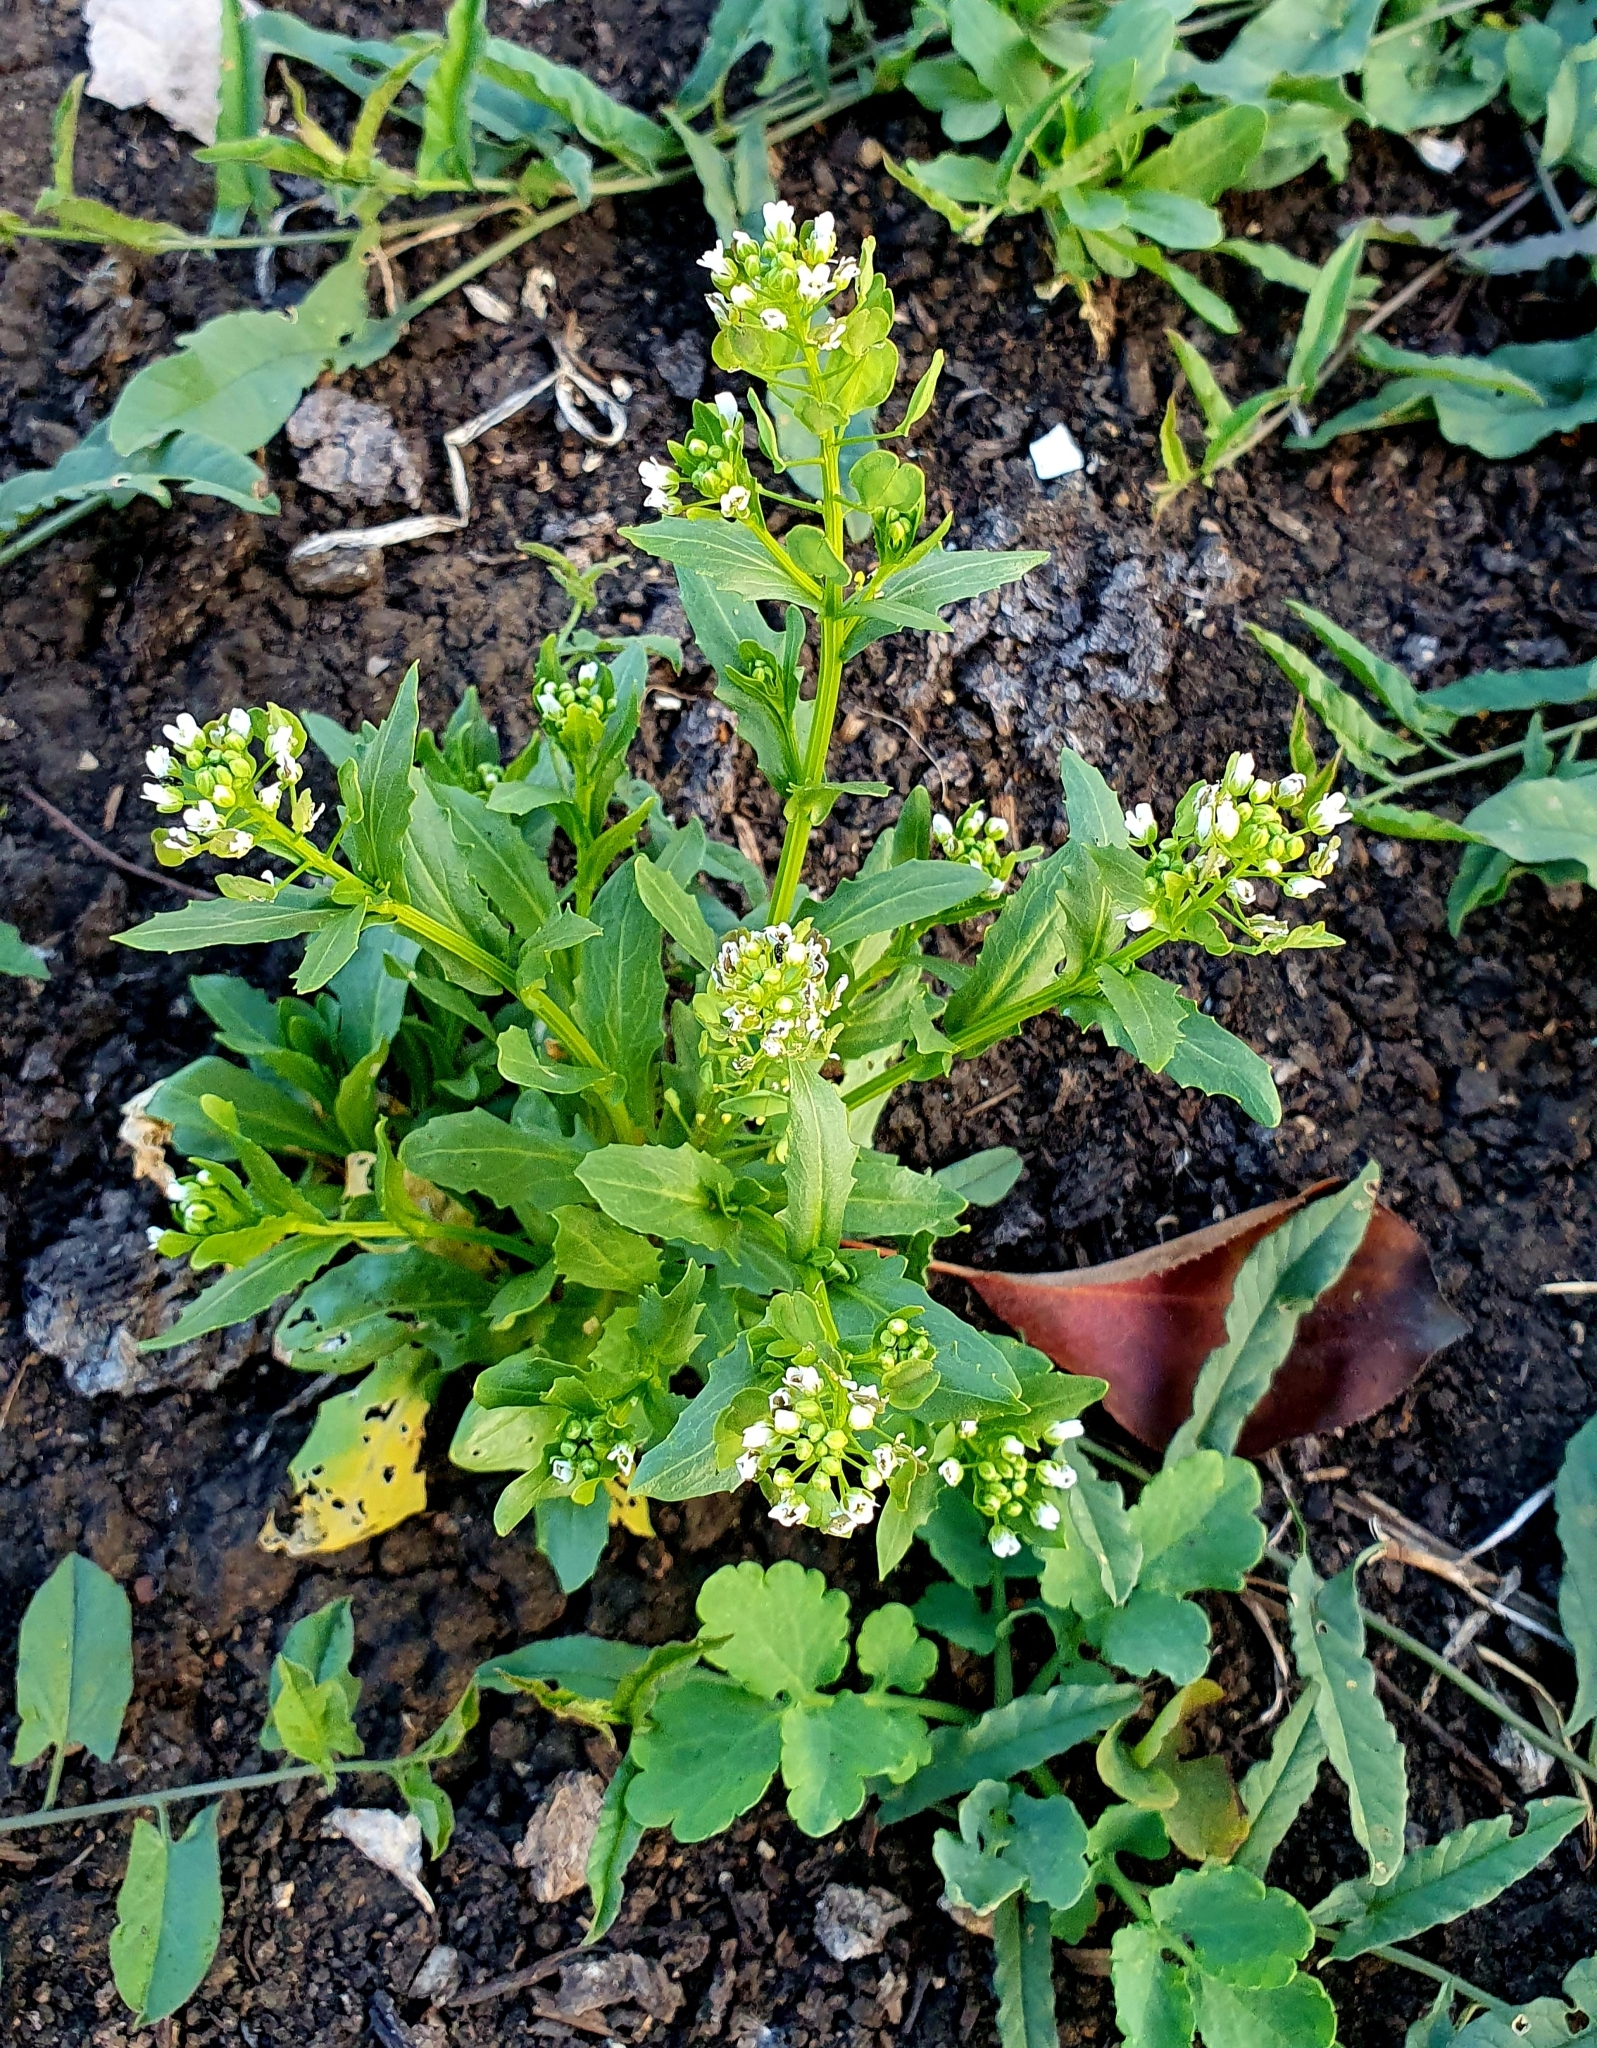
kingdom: Plantae
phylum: Tracheophyta
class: Magnoliopsida
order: Brassicales
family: Brassicaceae
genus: Thlaspi
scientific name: Thlaspi arvense
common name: Field pennycress
